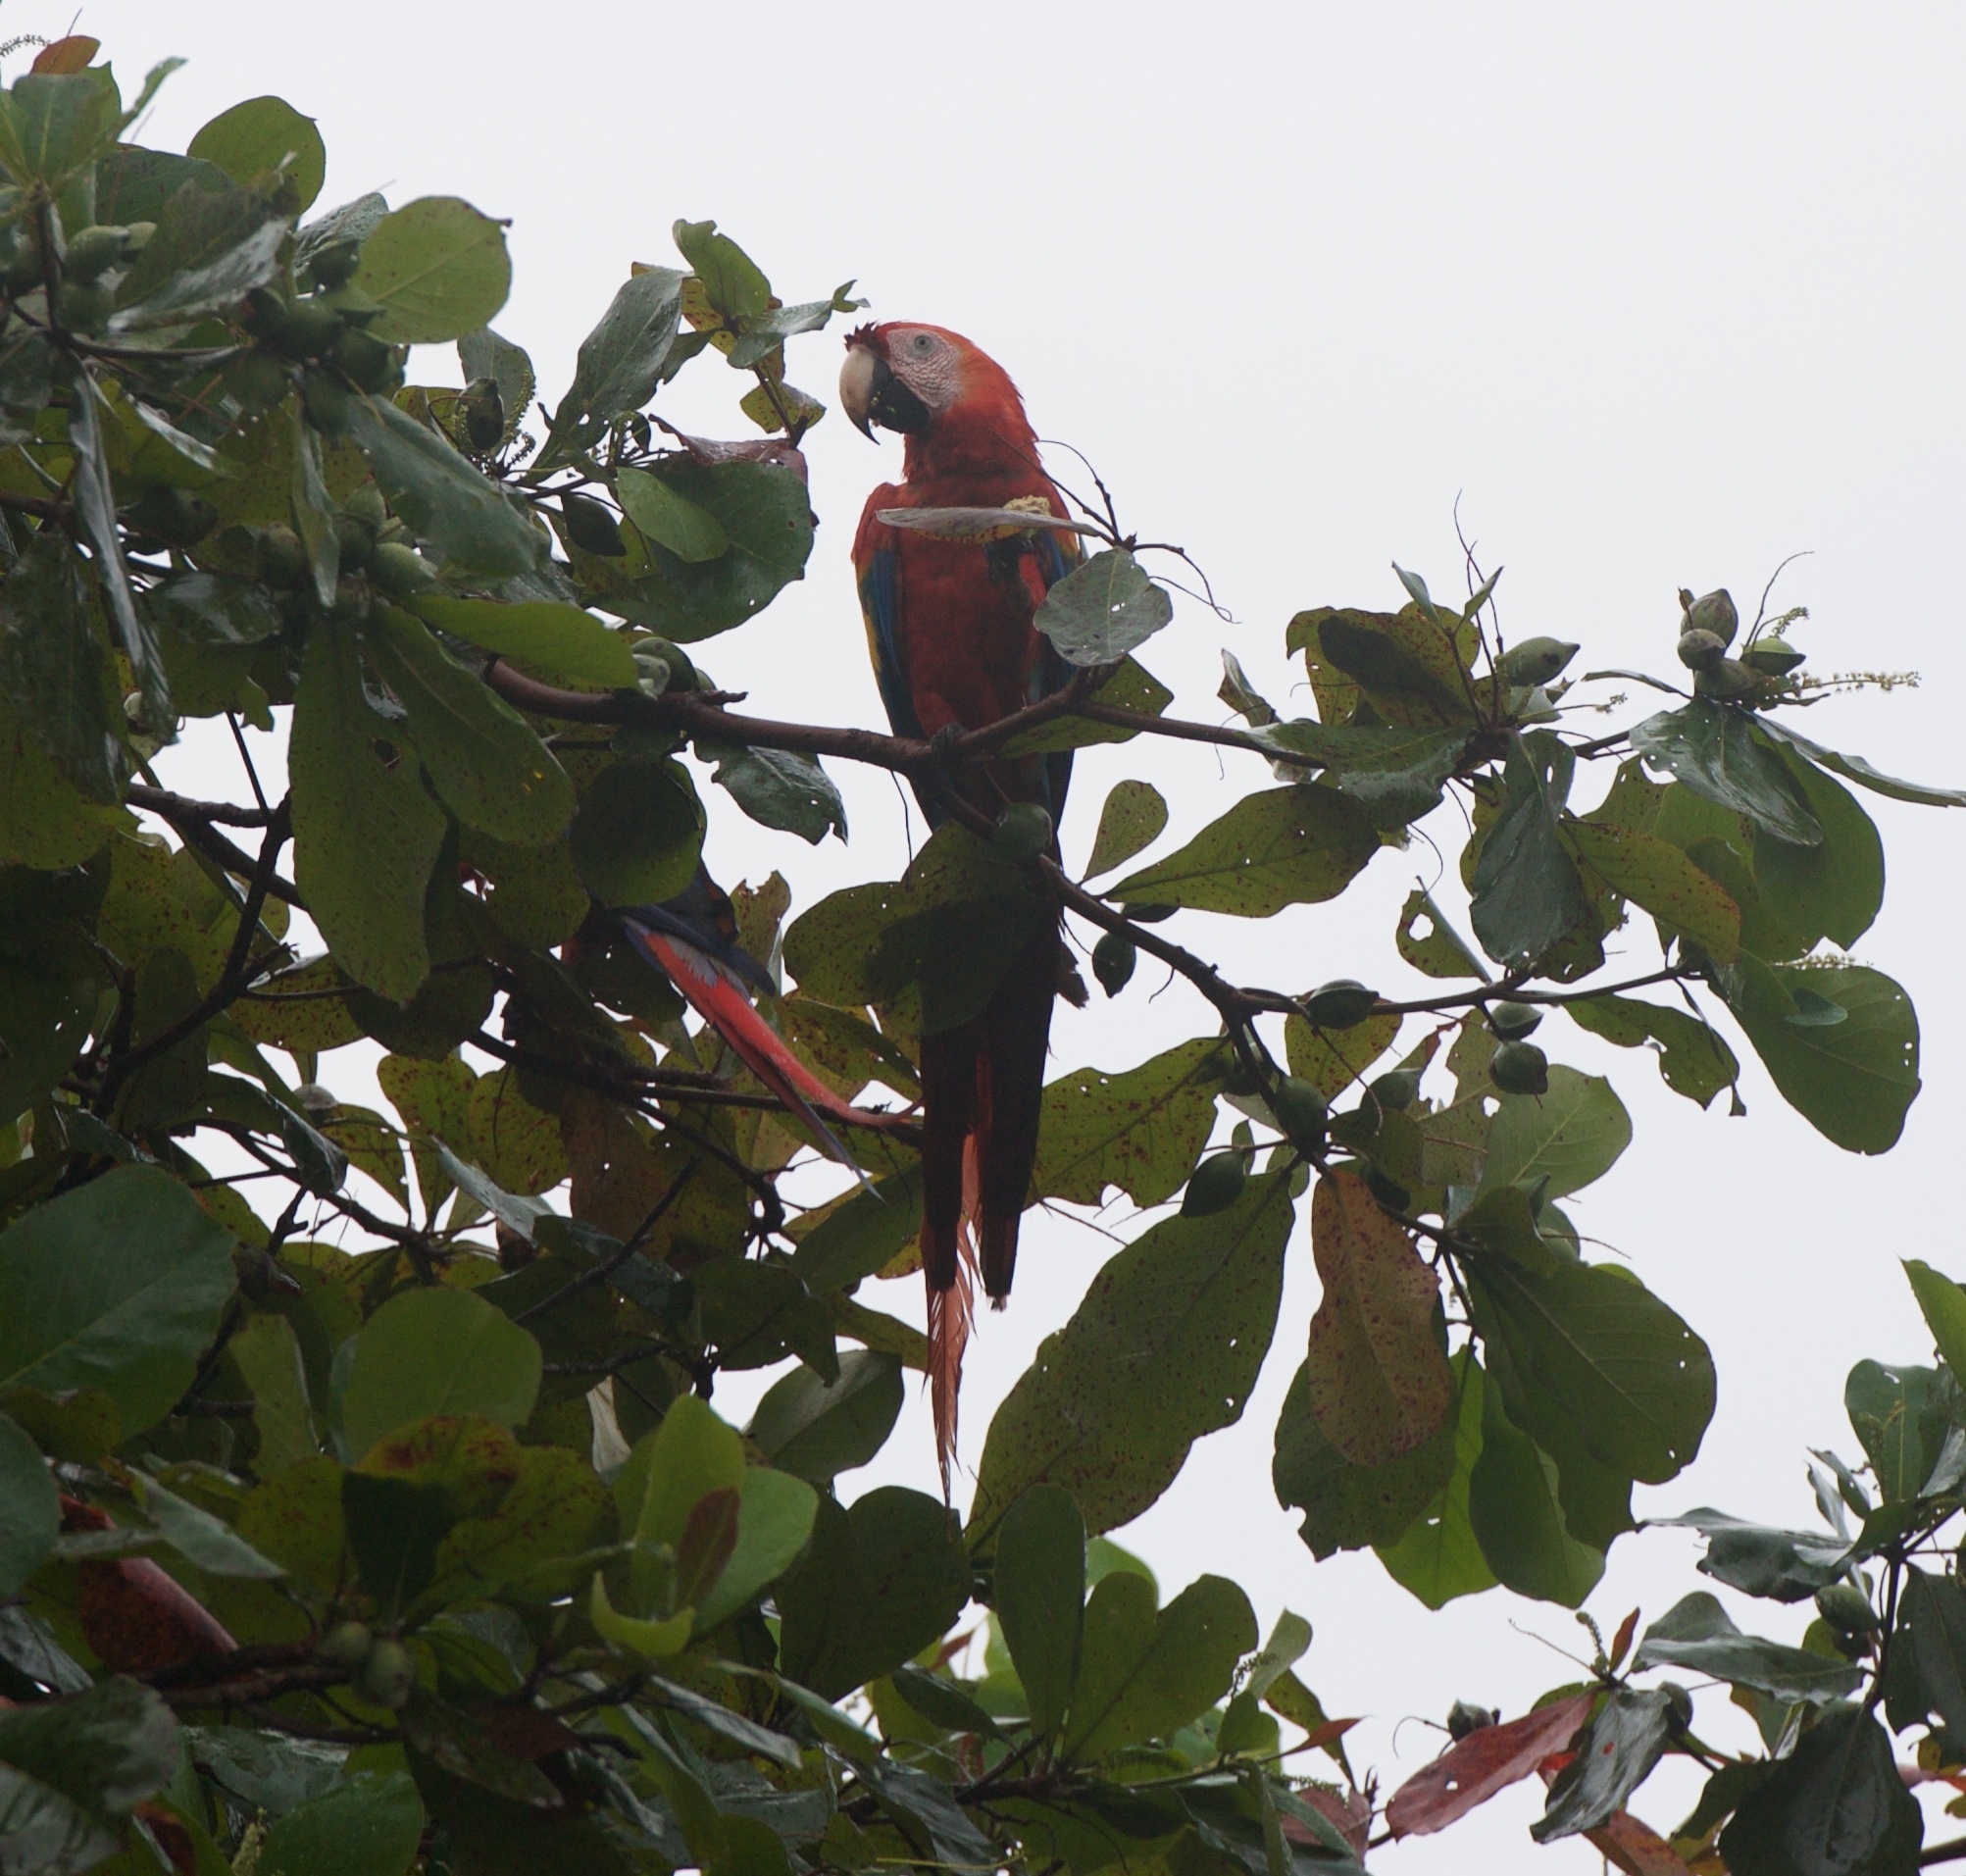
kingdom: Animalia
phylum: Chordata
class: Aves
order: Psittaciformes
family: Psittacidae
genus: Ara
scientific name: Ara macao
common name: Scarlet macaw
